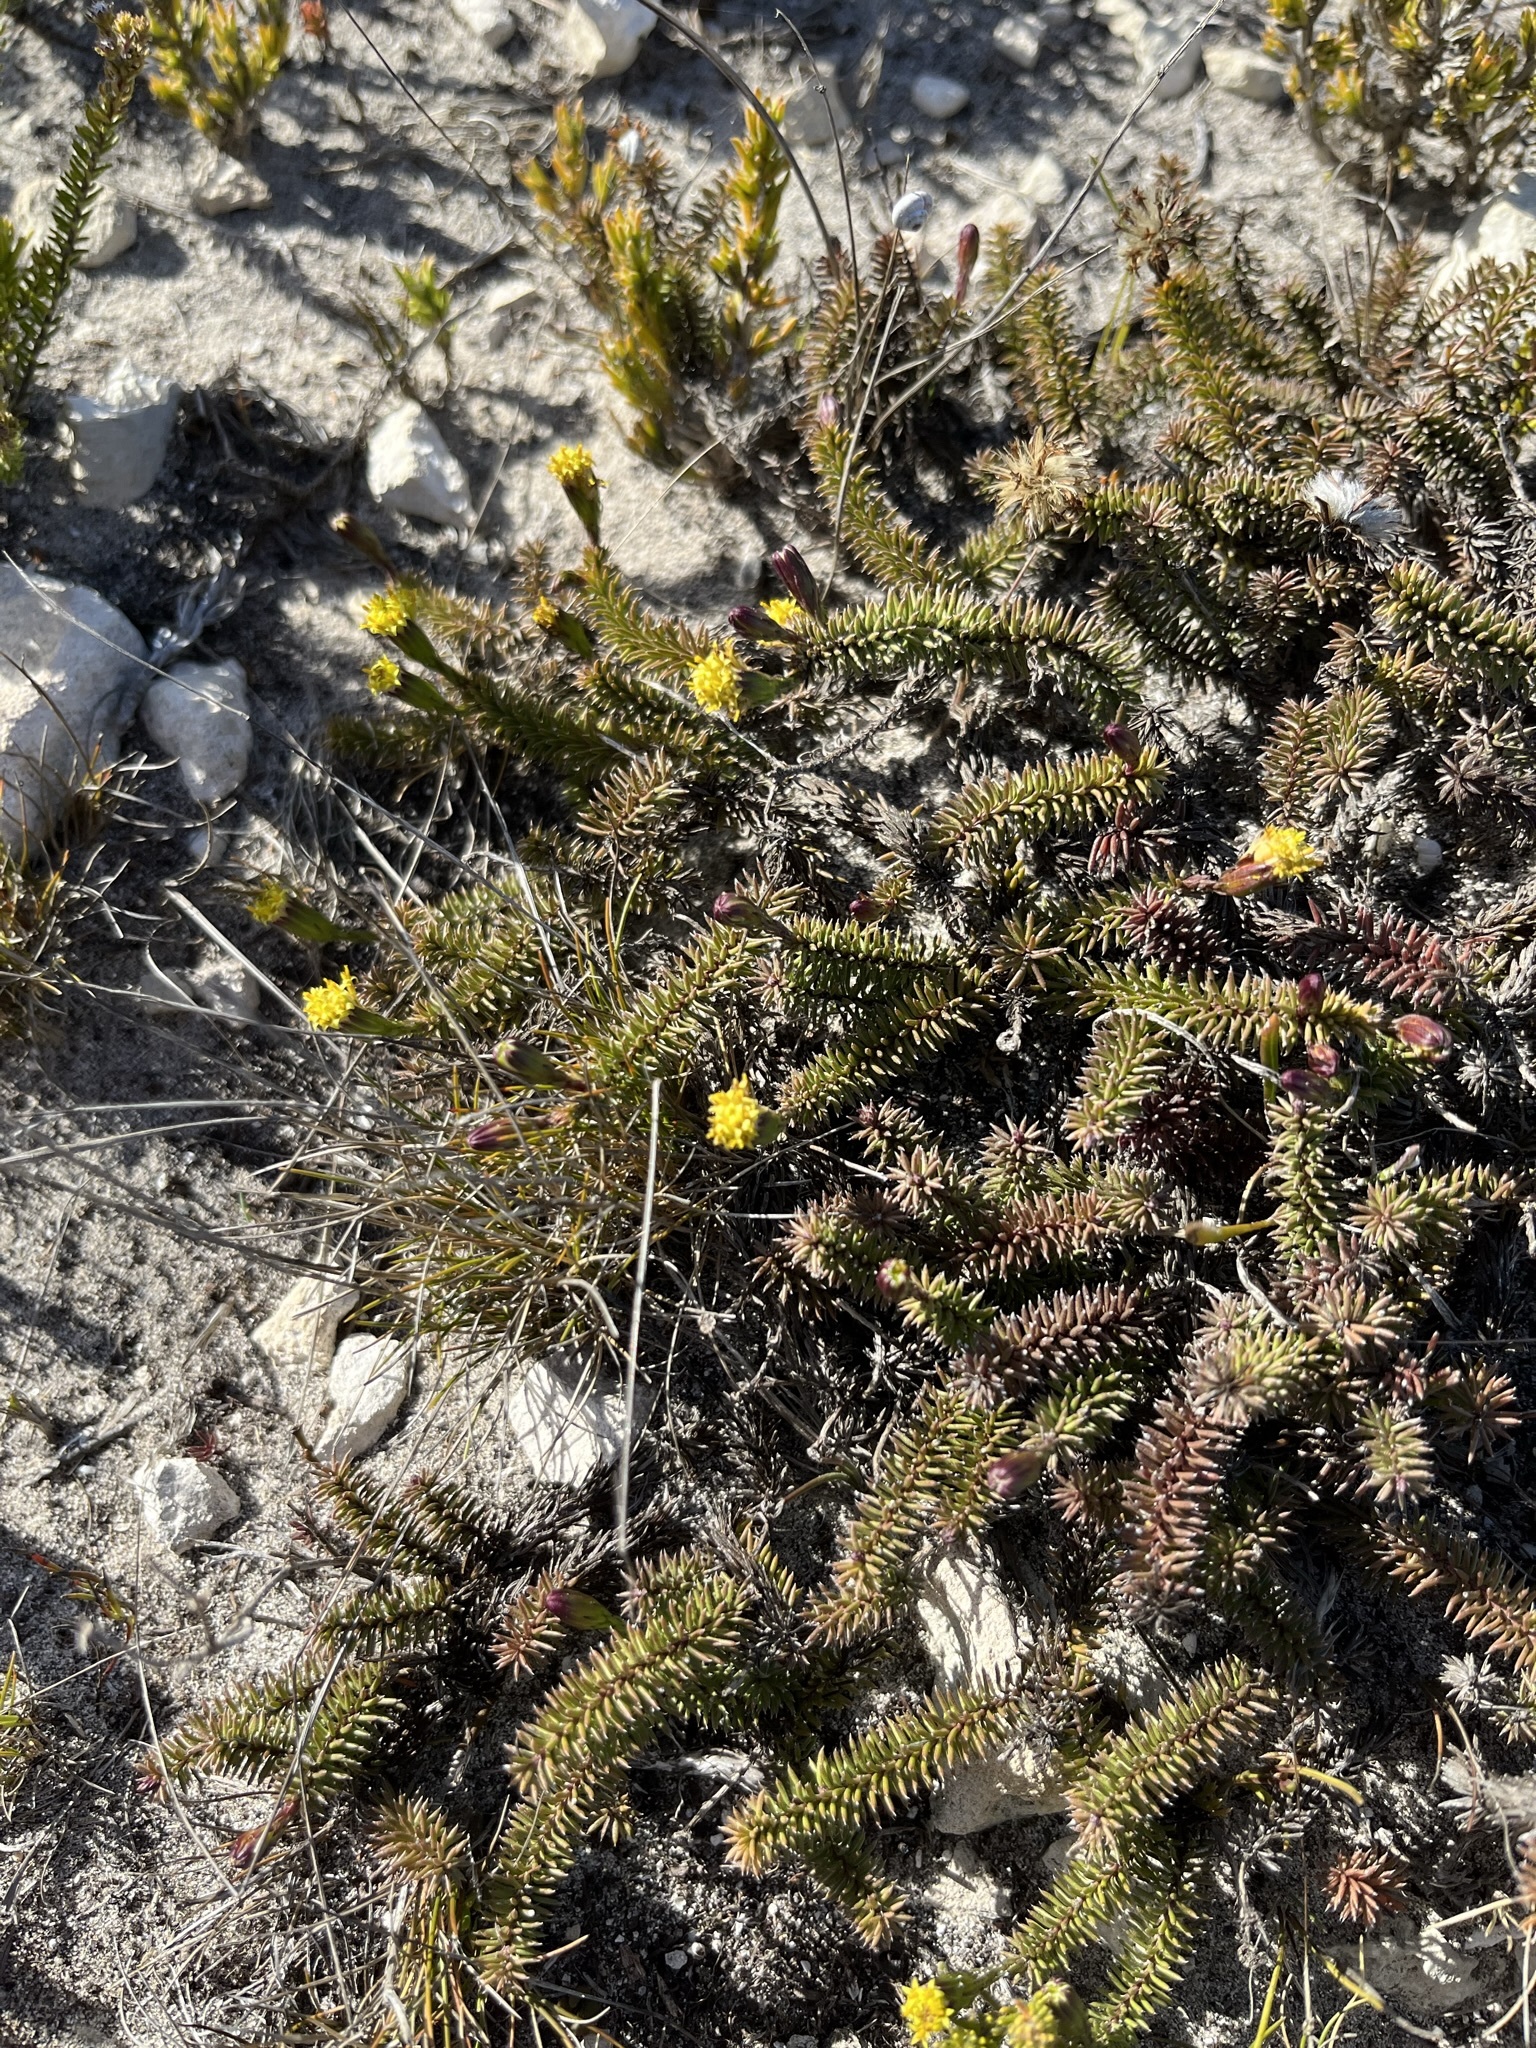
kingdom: Plantae
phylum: Tracheophyta
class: Magnoliopsida
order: Asterales
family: Asteraceae
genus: Senecio
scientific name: Senecio lycopodioides
